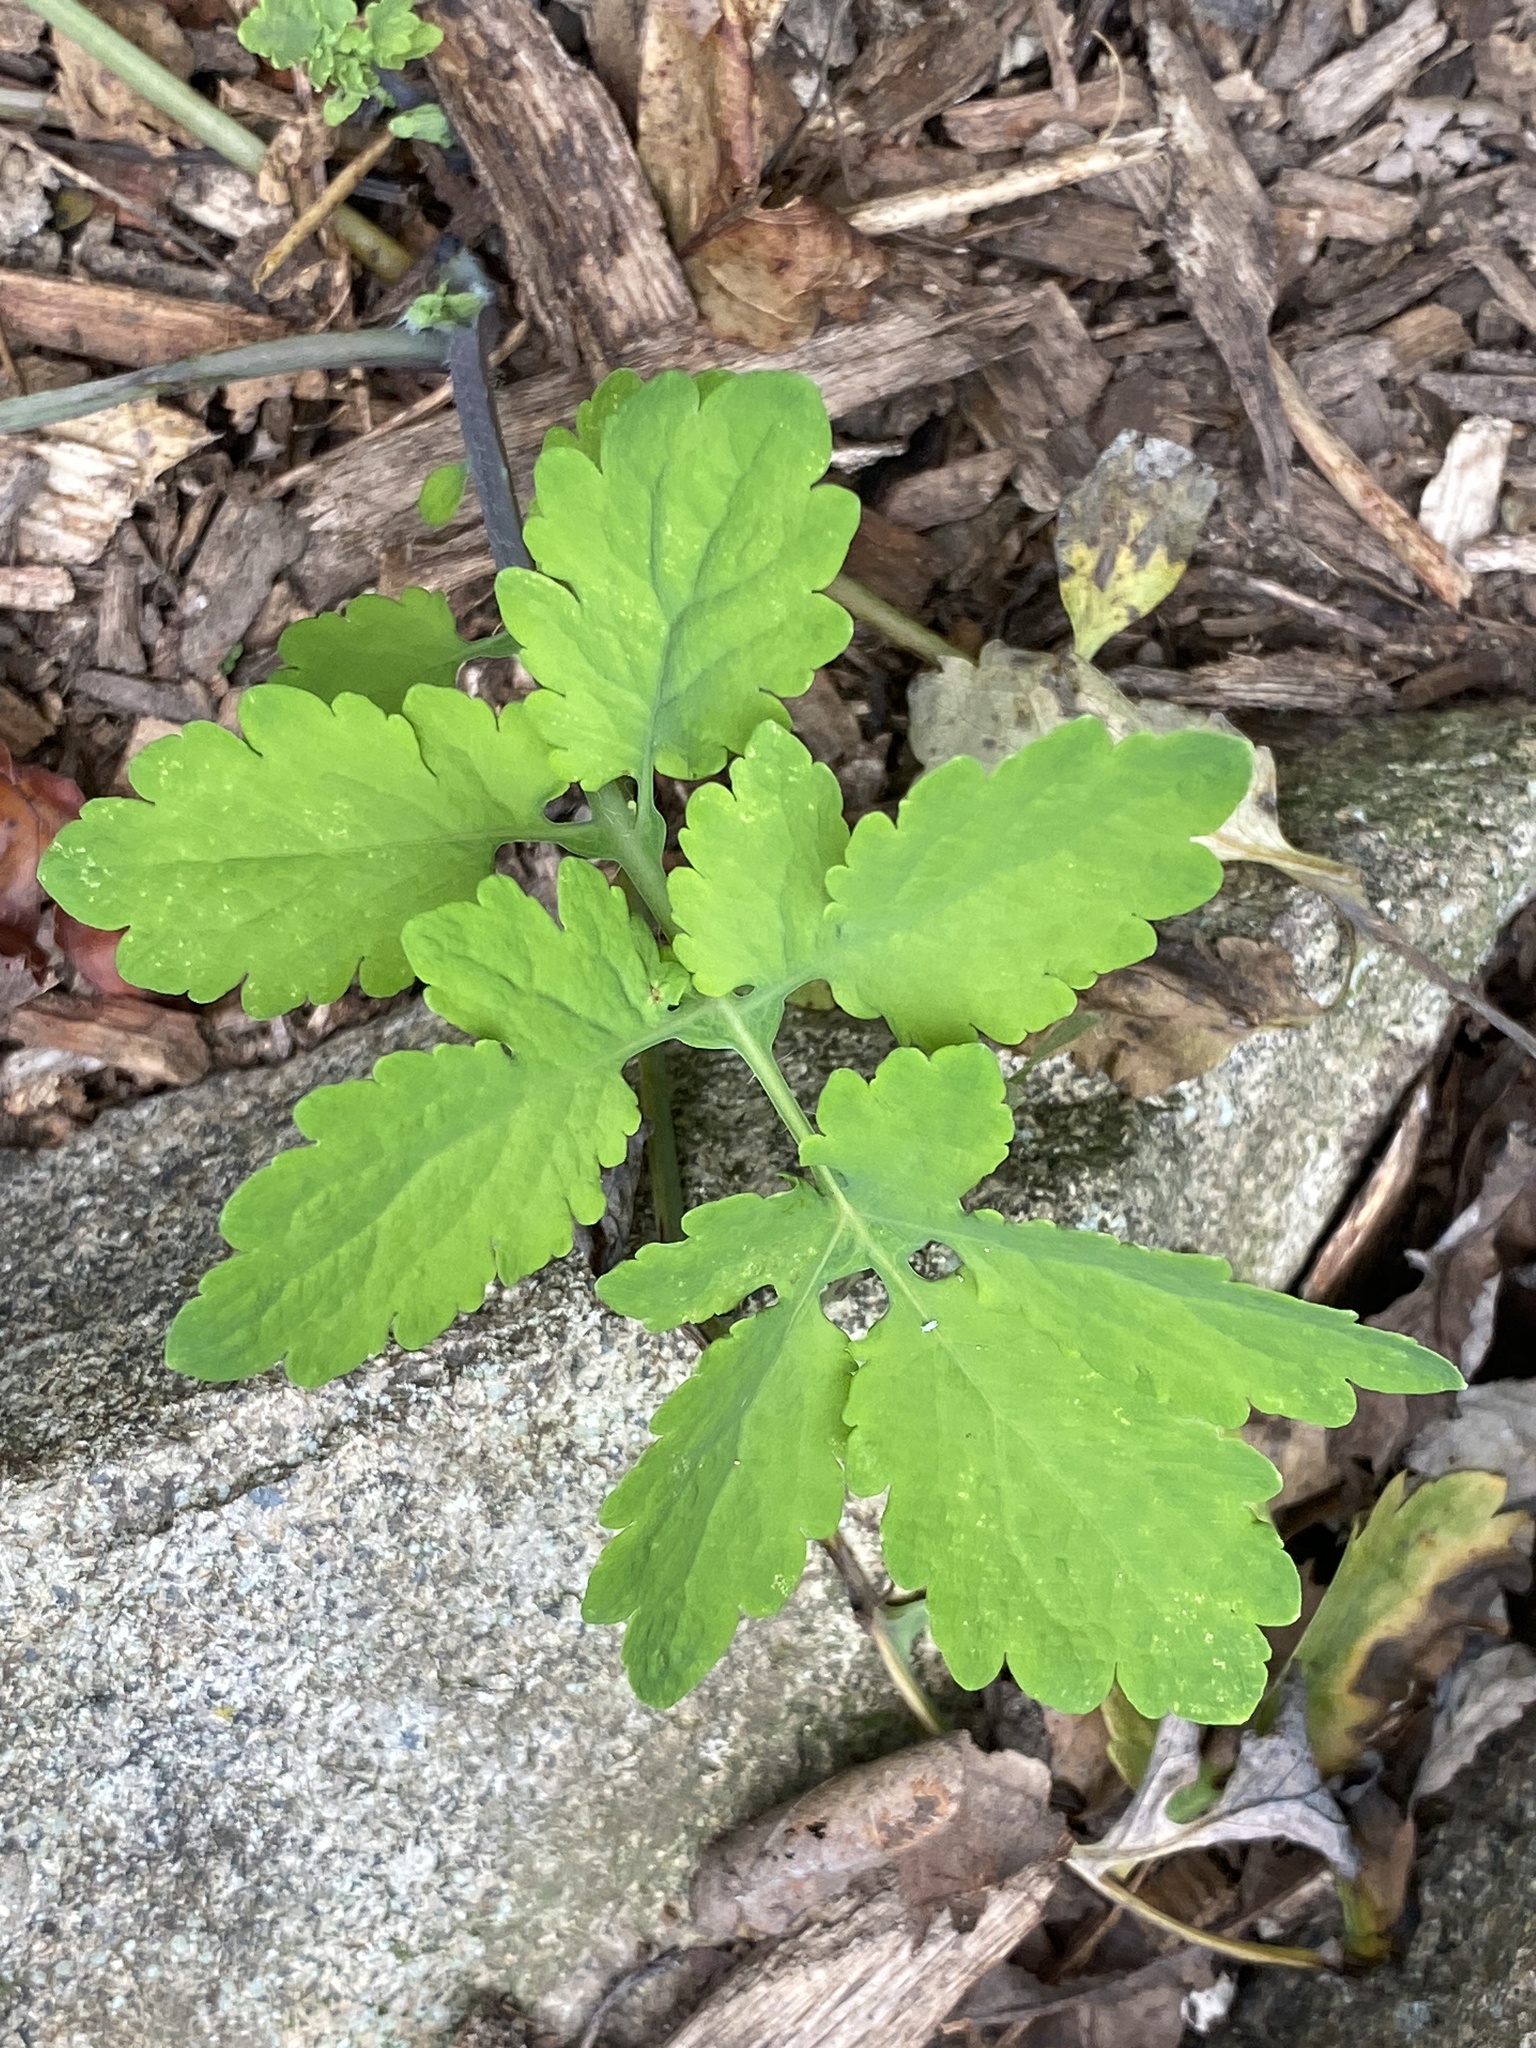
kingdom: Plantae
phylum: Tracheophyta
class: Magnoliopsida
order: Ranunculales
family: Papaveraceae
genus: Chelidonium
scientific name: Chelidonium majus
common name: Greater celandine
